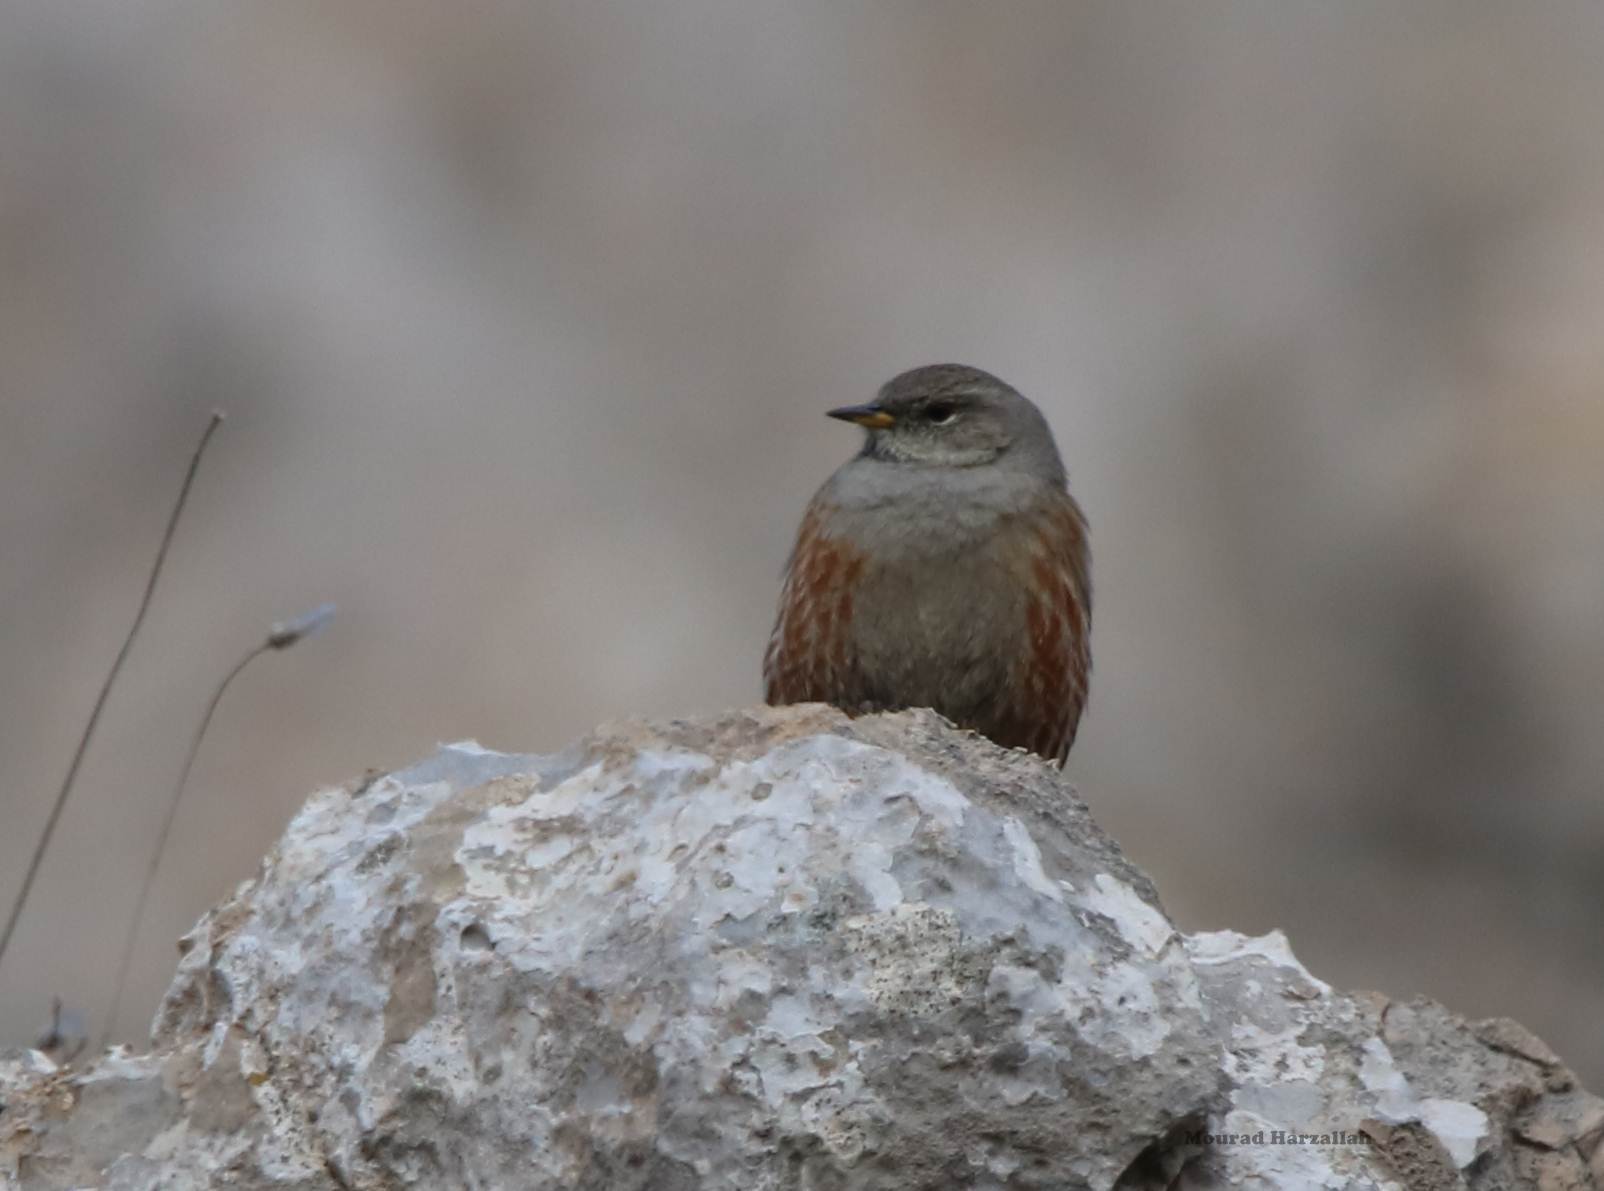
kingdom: Animalia
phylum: Chordata
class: Aves
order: Passeriformes
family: Prunellidae
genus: Prunella
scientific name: Prunella collaris
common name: Alpine accentor
